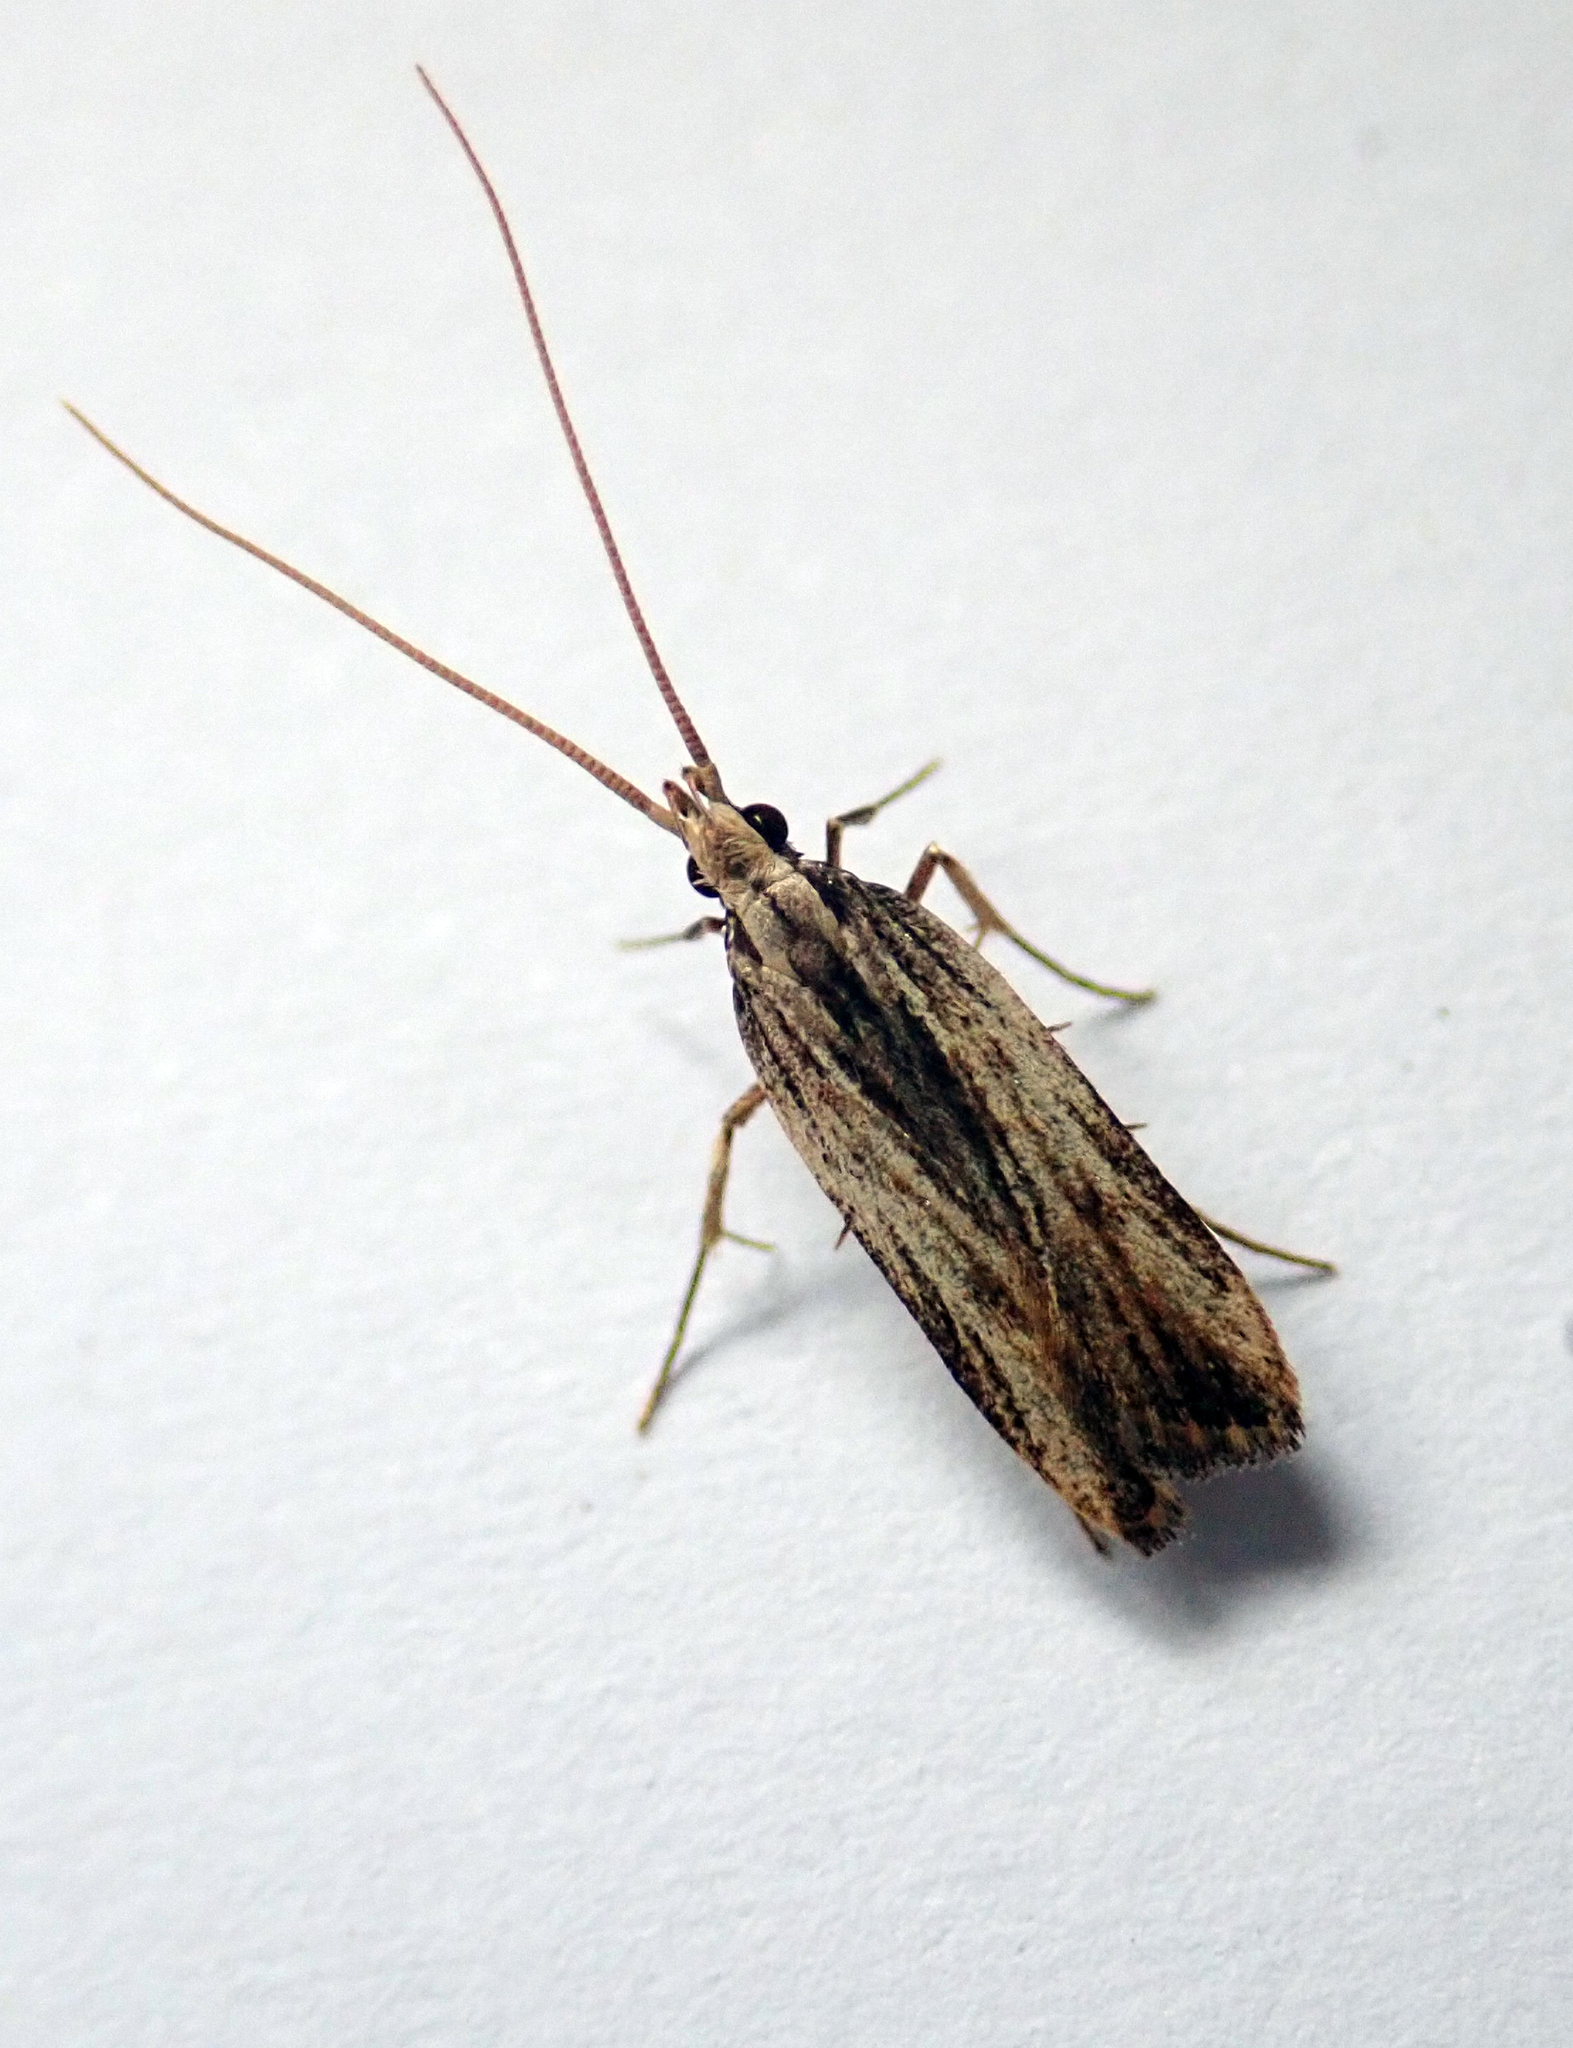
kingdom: Animalia
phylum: Arthropoda
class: Insecta
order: Lepidoptera
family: Lecithoceridae
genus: Sarisophora
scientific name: Sarisophora leucoscia
